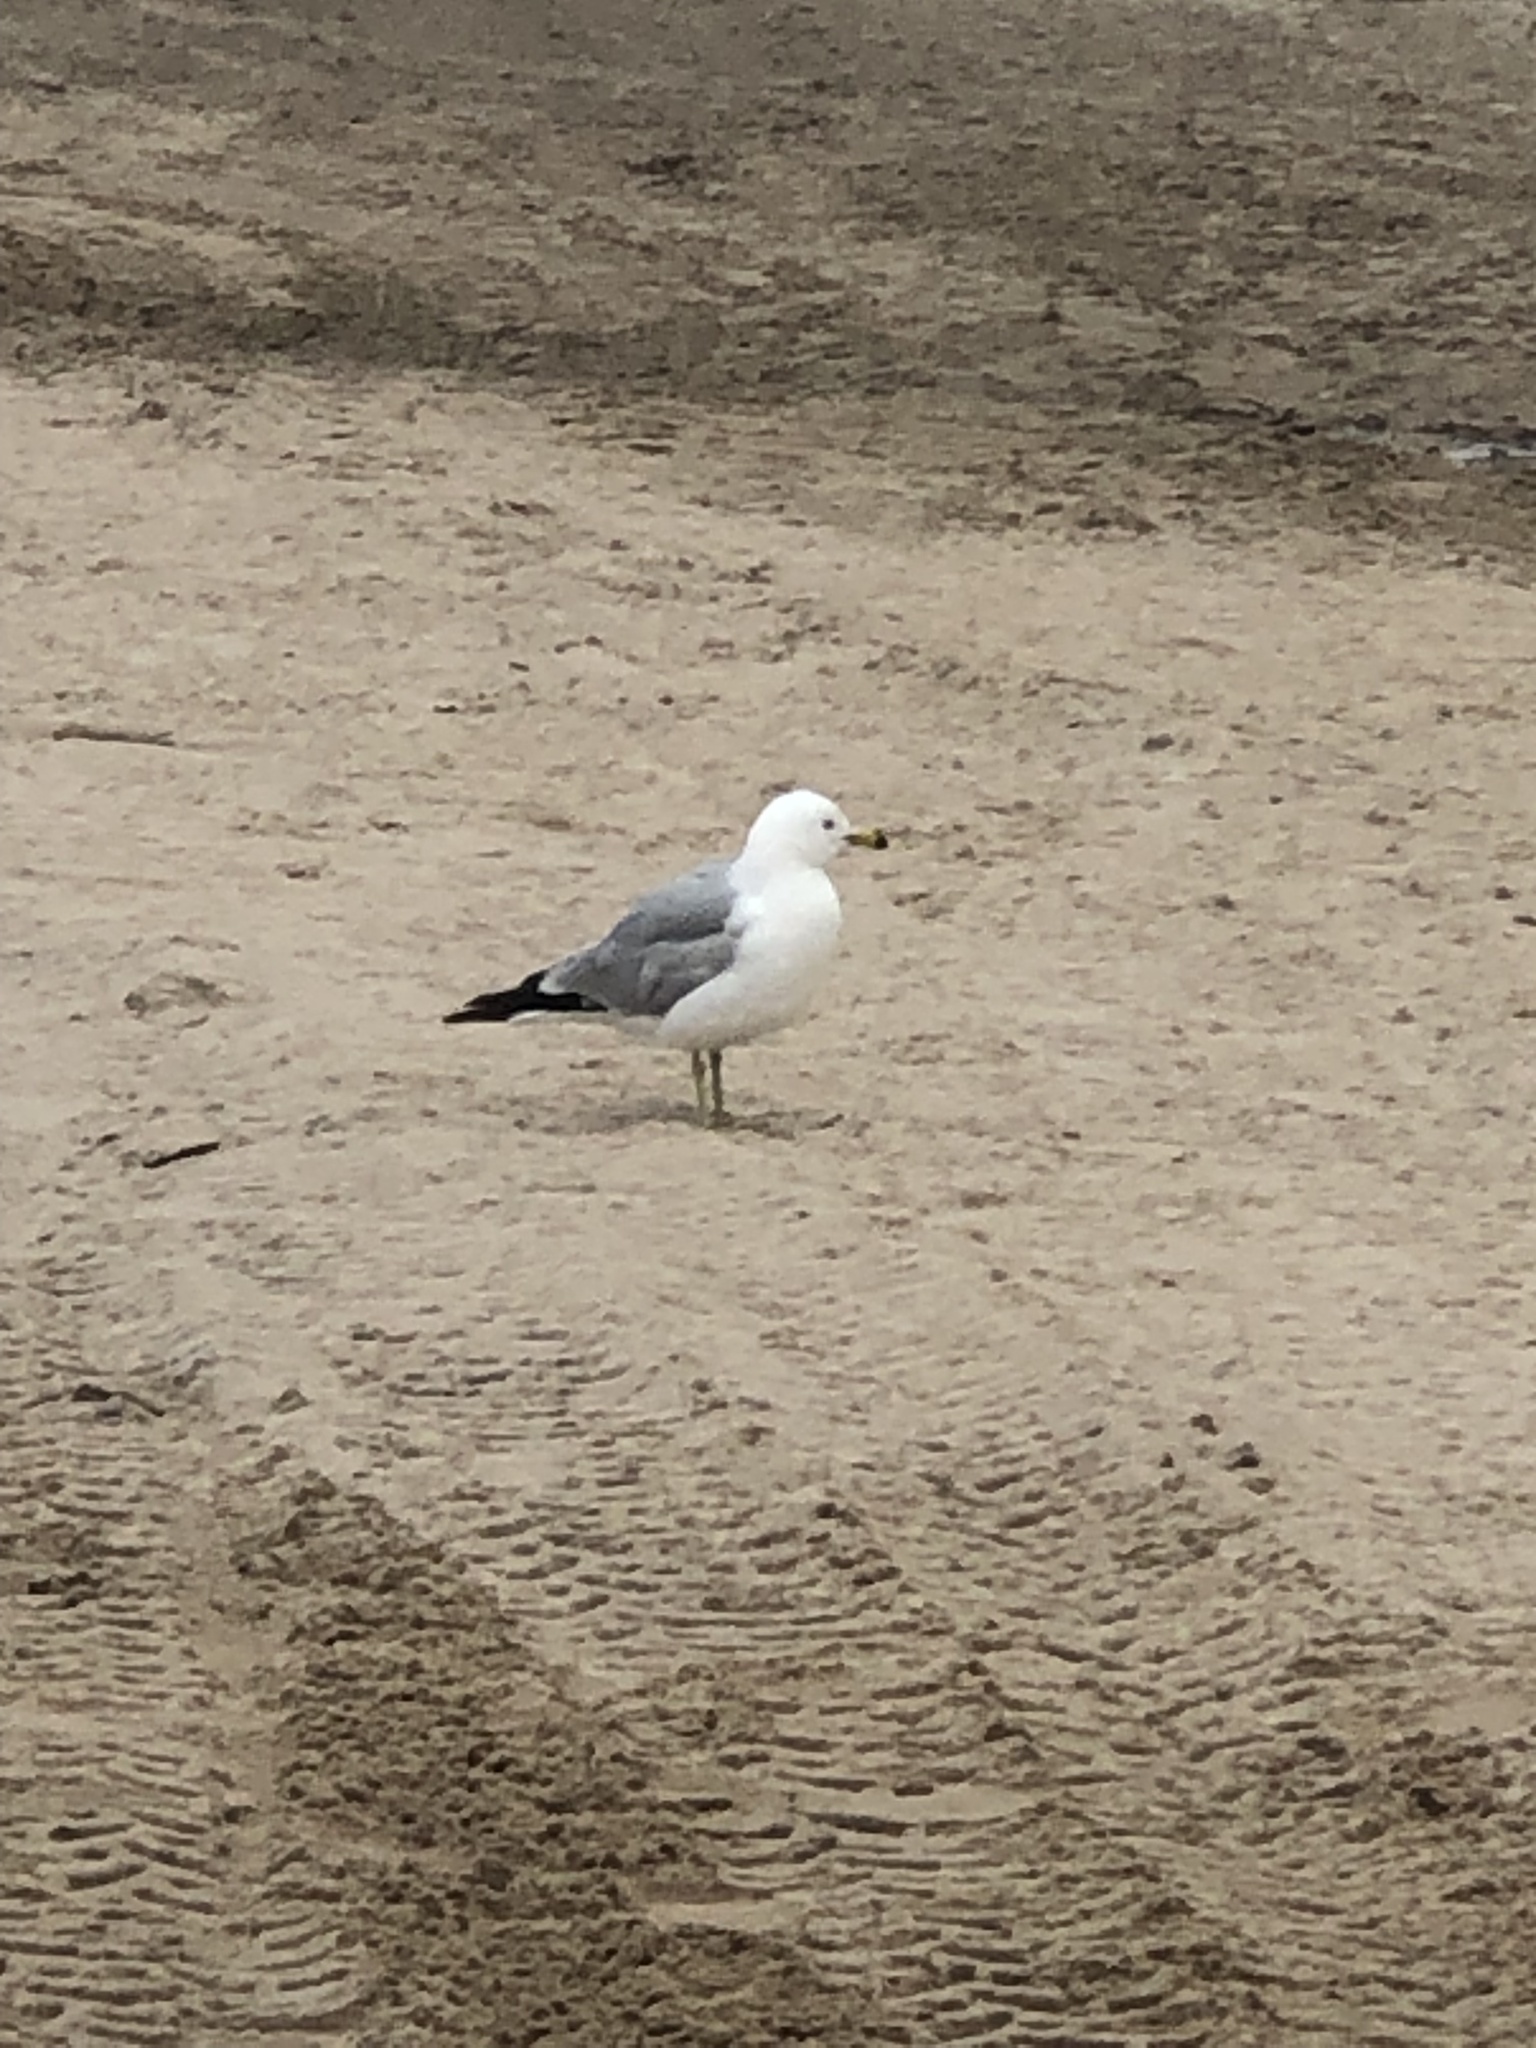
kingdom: Animalia
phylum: Chordata
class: Aves
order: Charadriiformes
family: Laridae
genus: Larus
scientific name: Larus delawarensis
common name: Ring-billed gull
